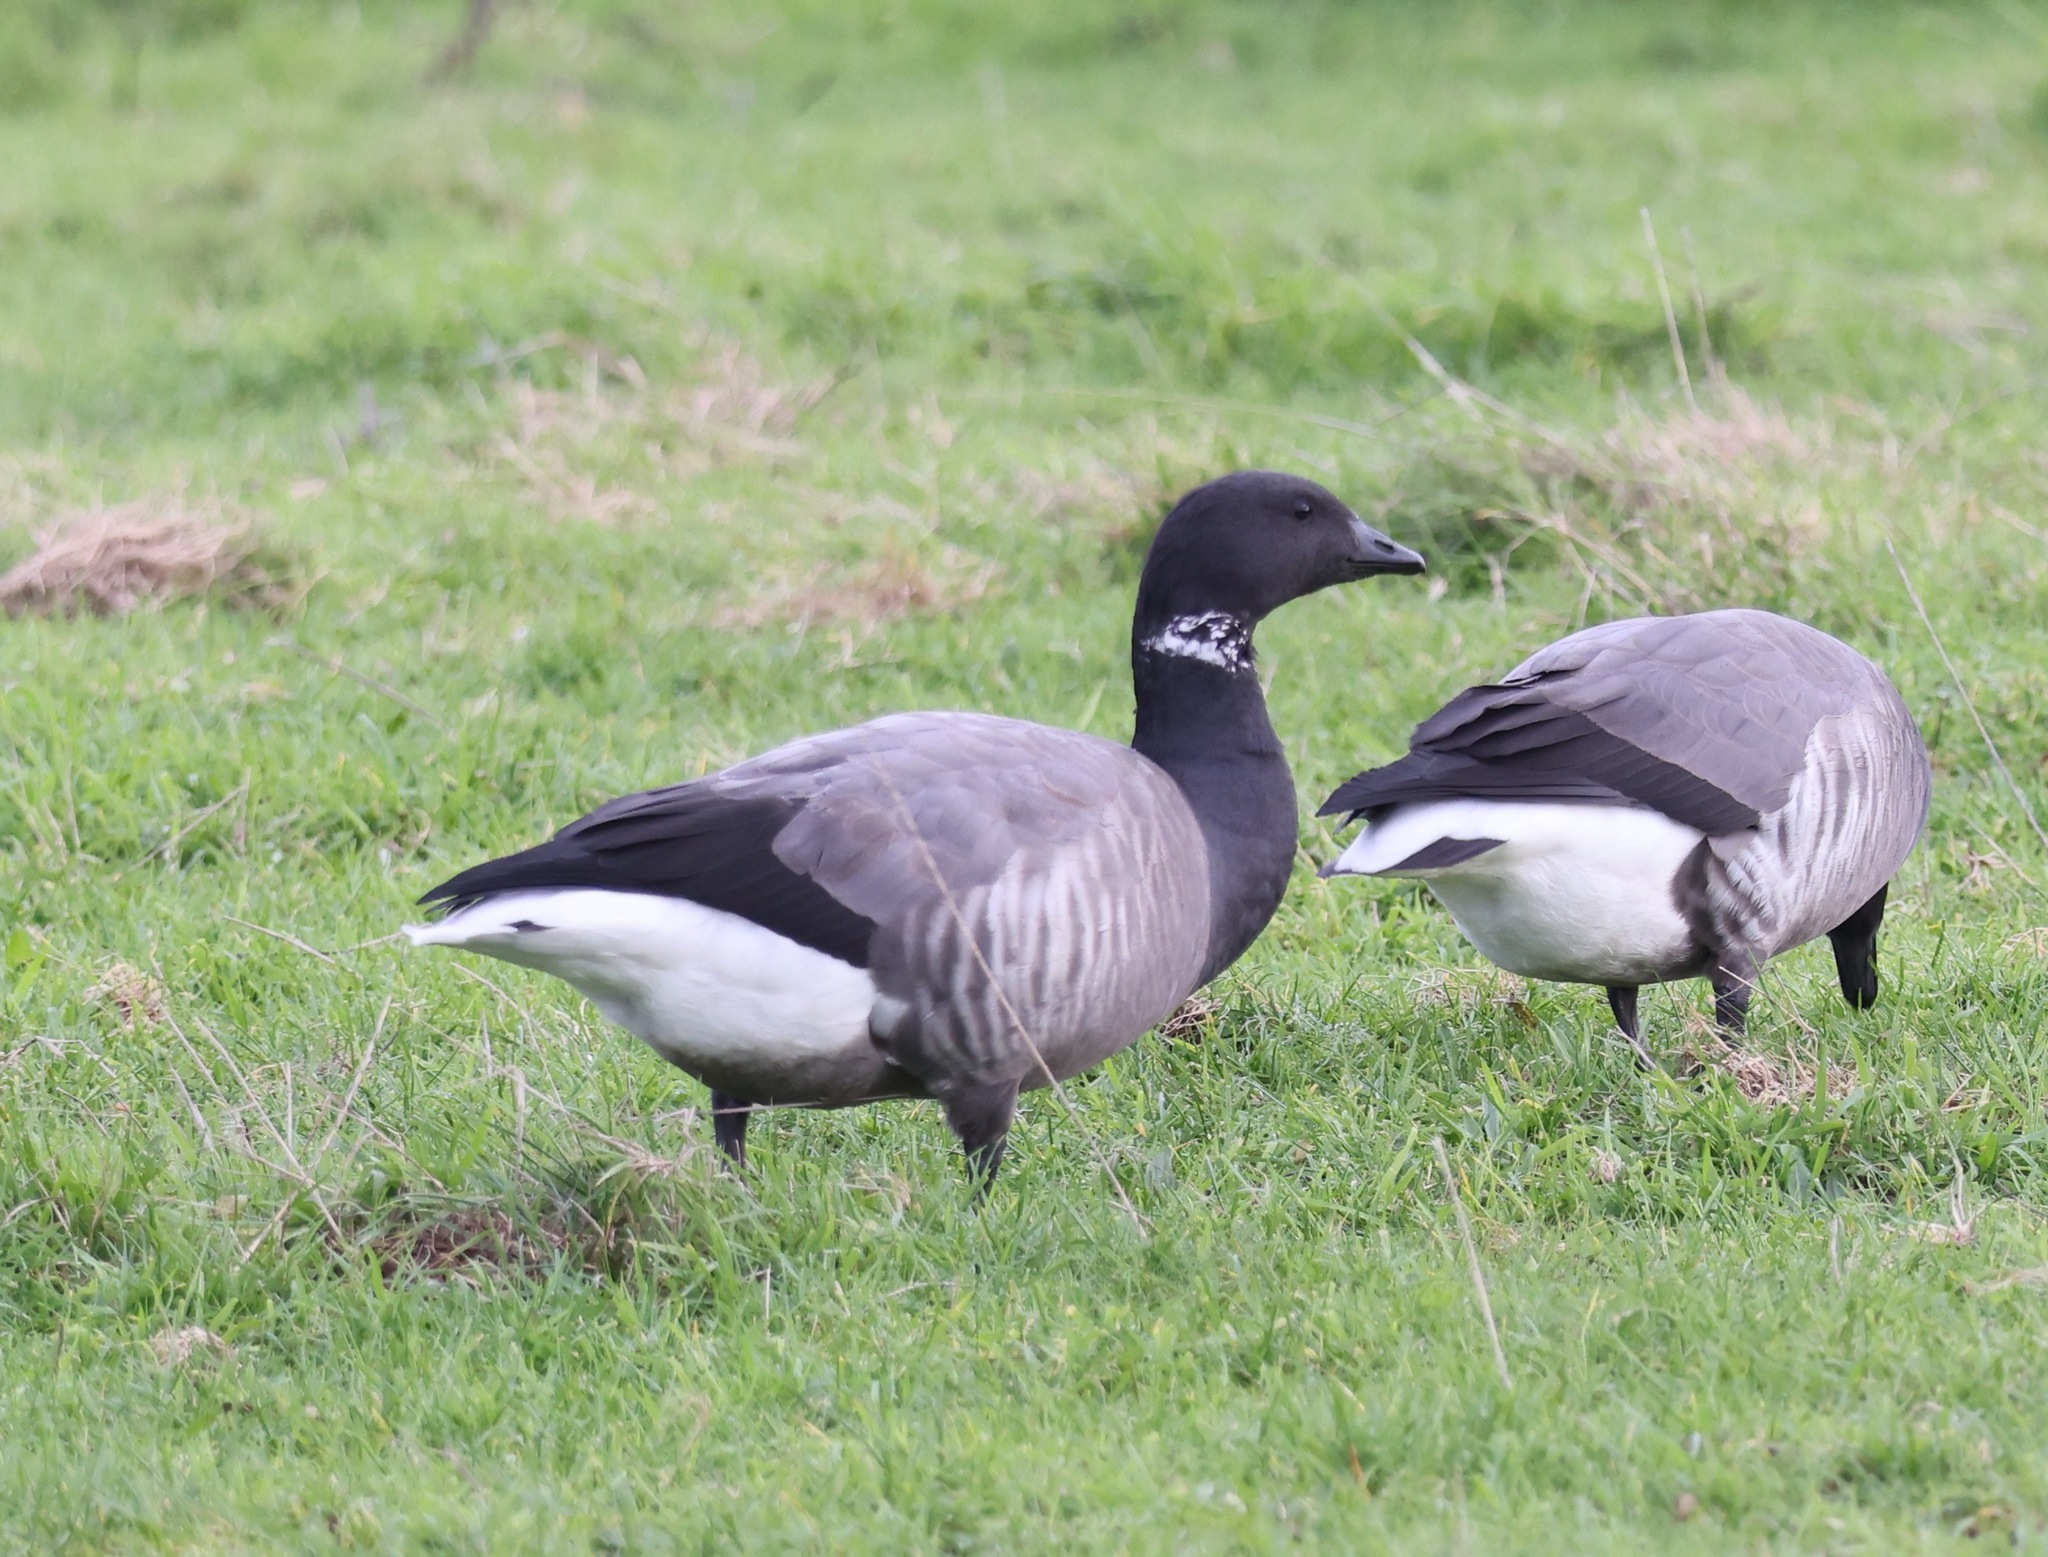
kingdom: Animalia
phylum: Chordata
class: Aves
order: Anseriformes
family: Anatidae
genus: Branta
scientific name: Branta bernicla
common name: Brant goose
